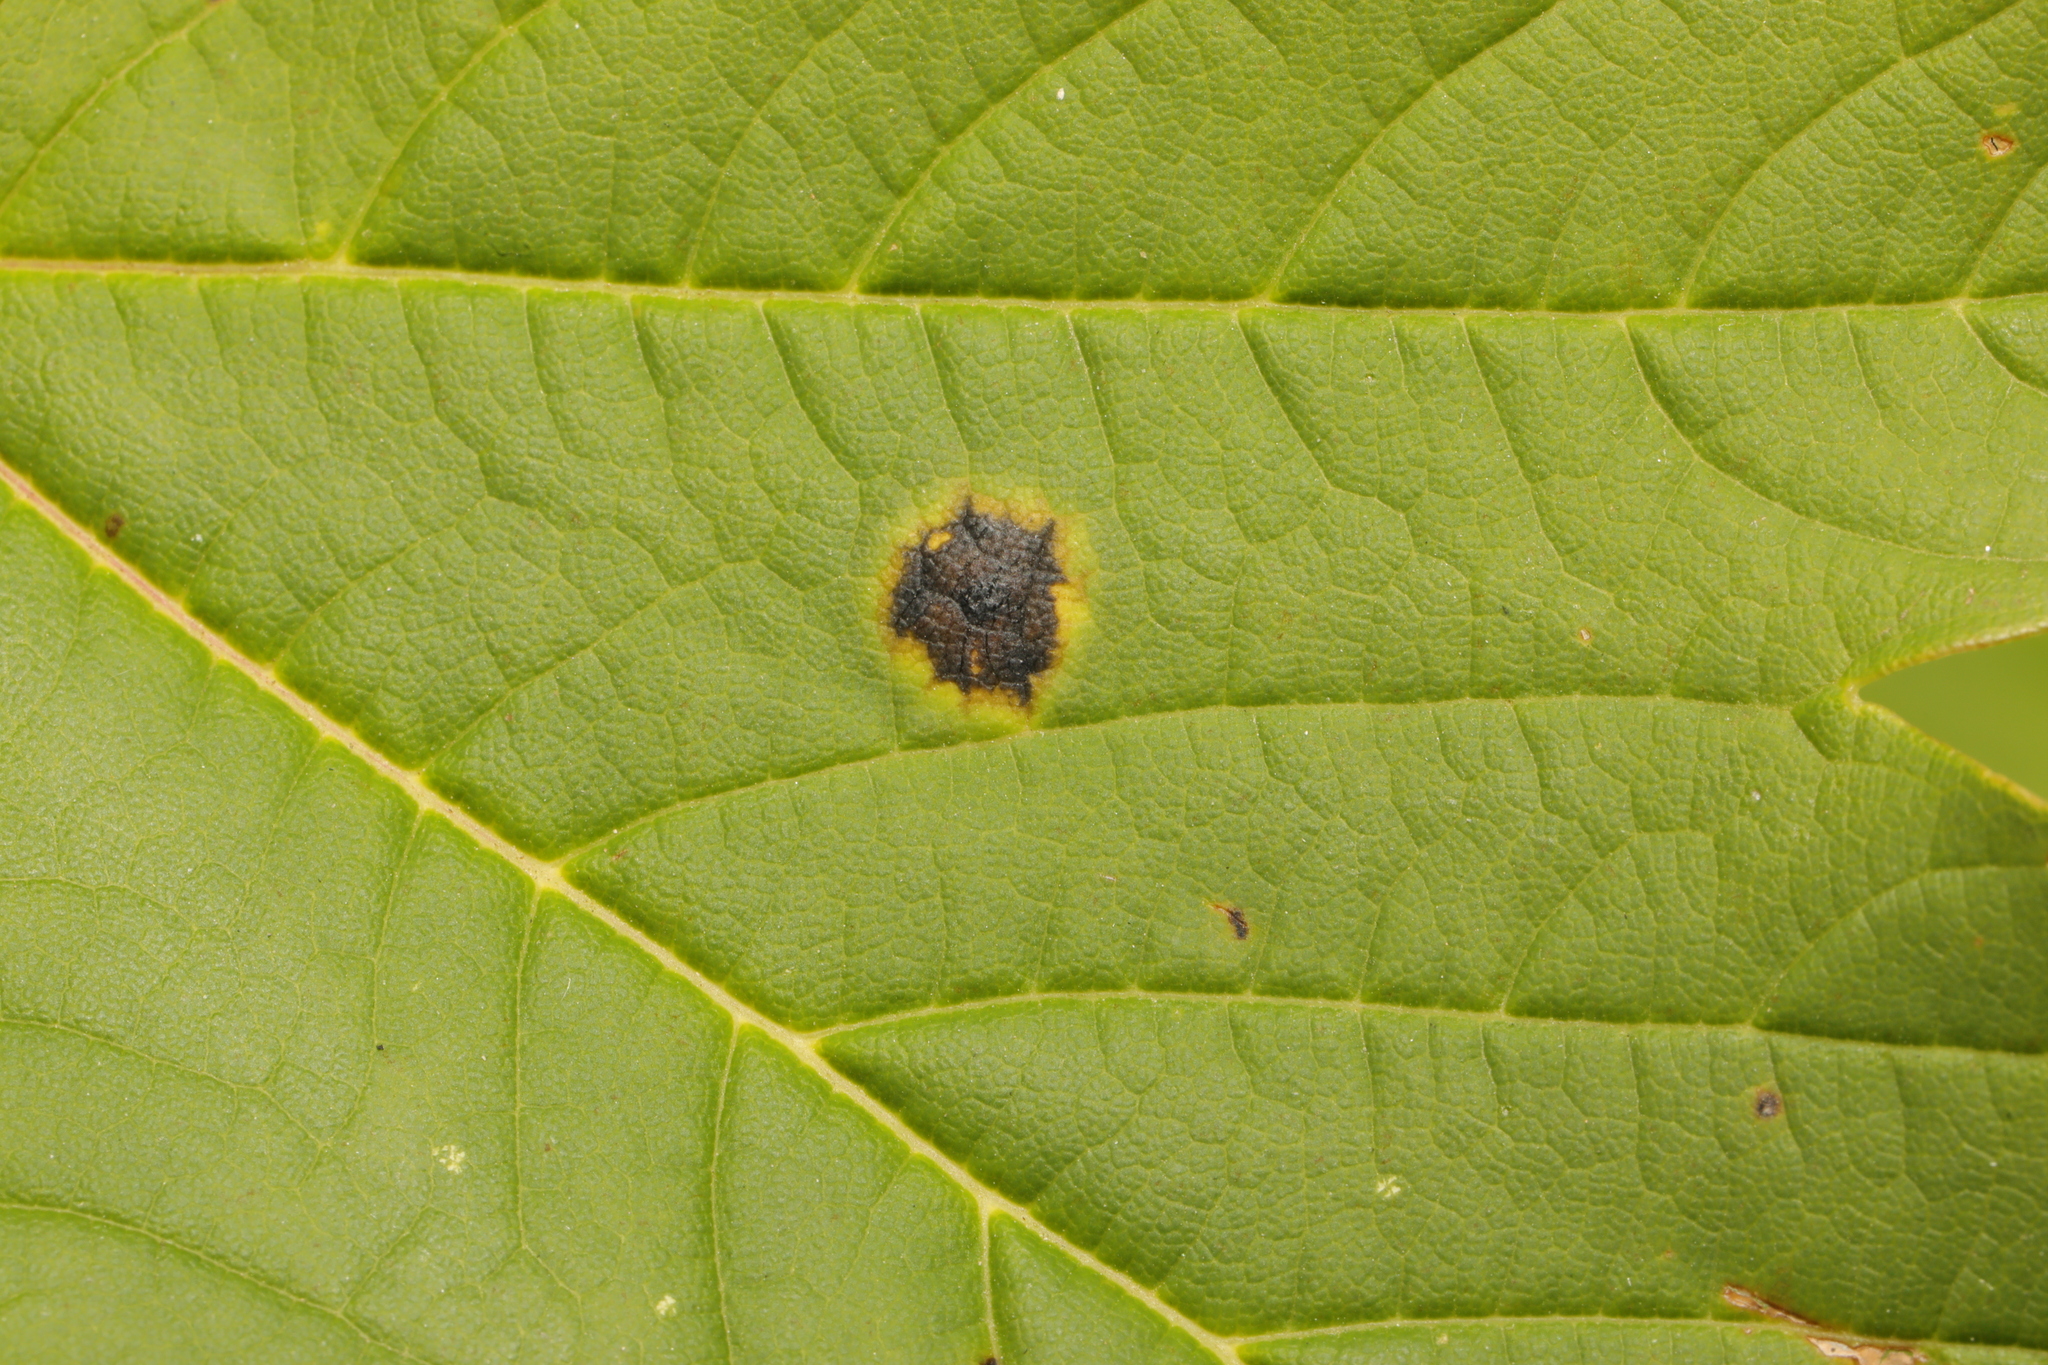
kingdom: Fungi
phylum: Ascomycota
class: Leotiomycetes
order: Rhytismatales
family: Rhytismataceae
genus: Rhytisma
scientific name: Rhytisma acerinum
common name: European tar spot
